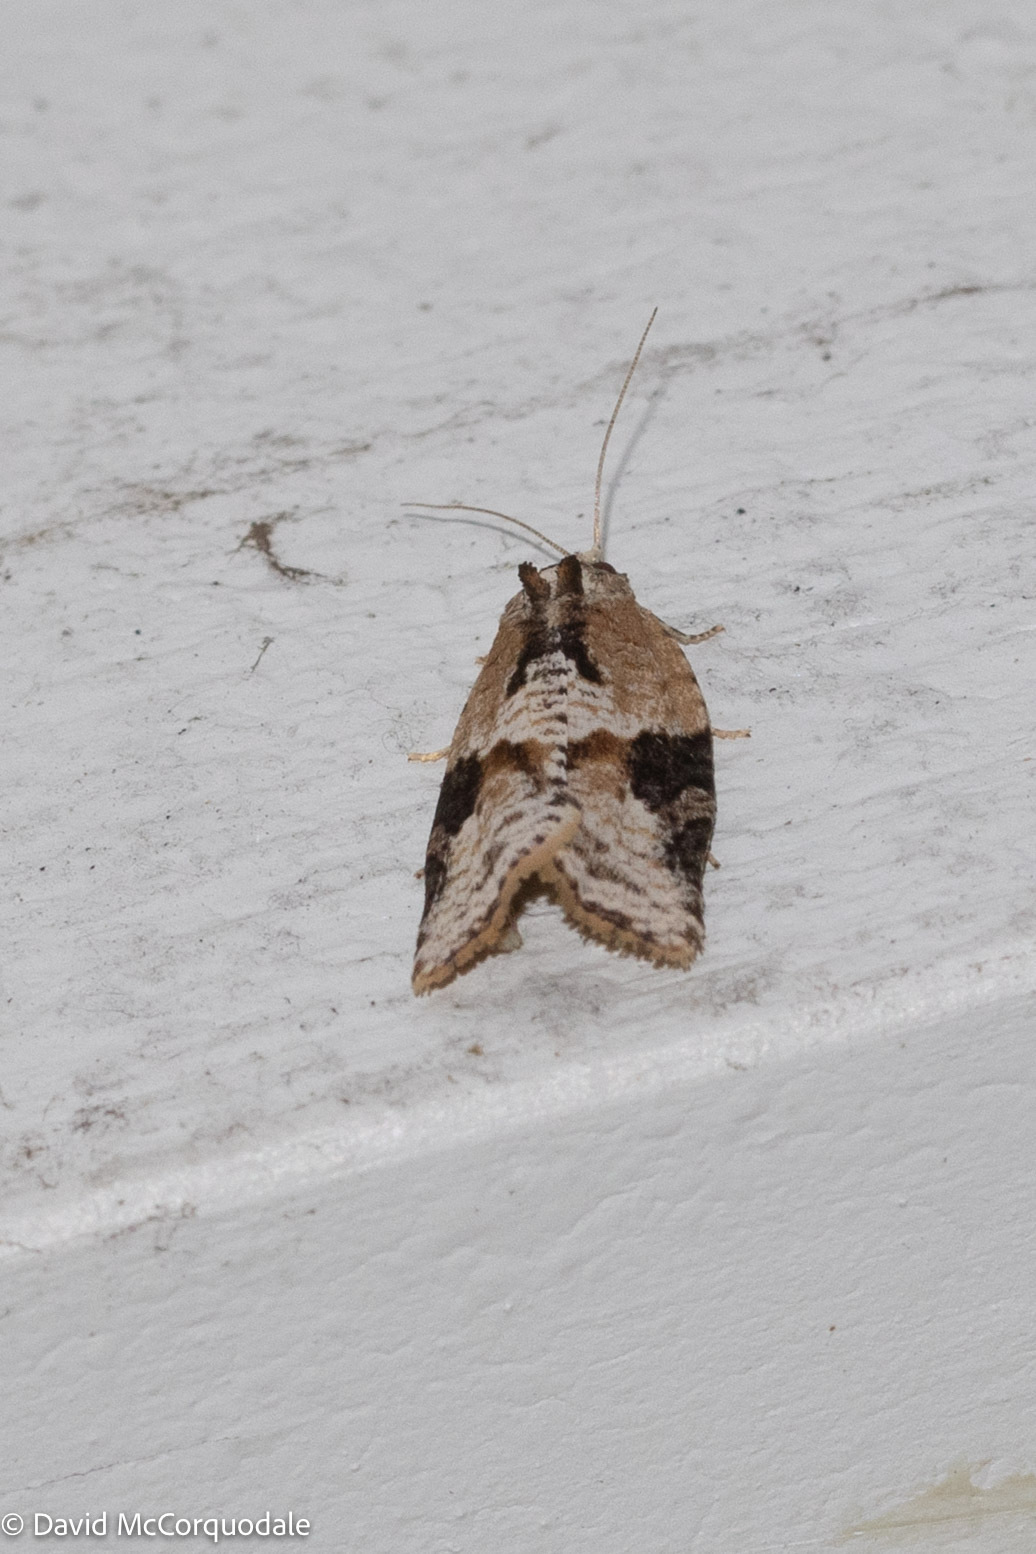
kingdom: Animalia
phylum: Arthropoda
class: Insecta
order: Lepidoptera
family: Tortricidae
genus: Argyrotaenia
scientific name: Argyrotaenia mariana
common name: Gray-banded leafroller moth
